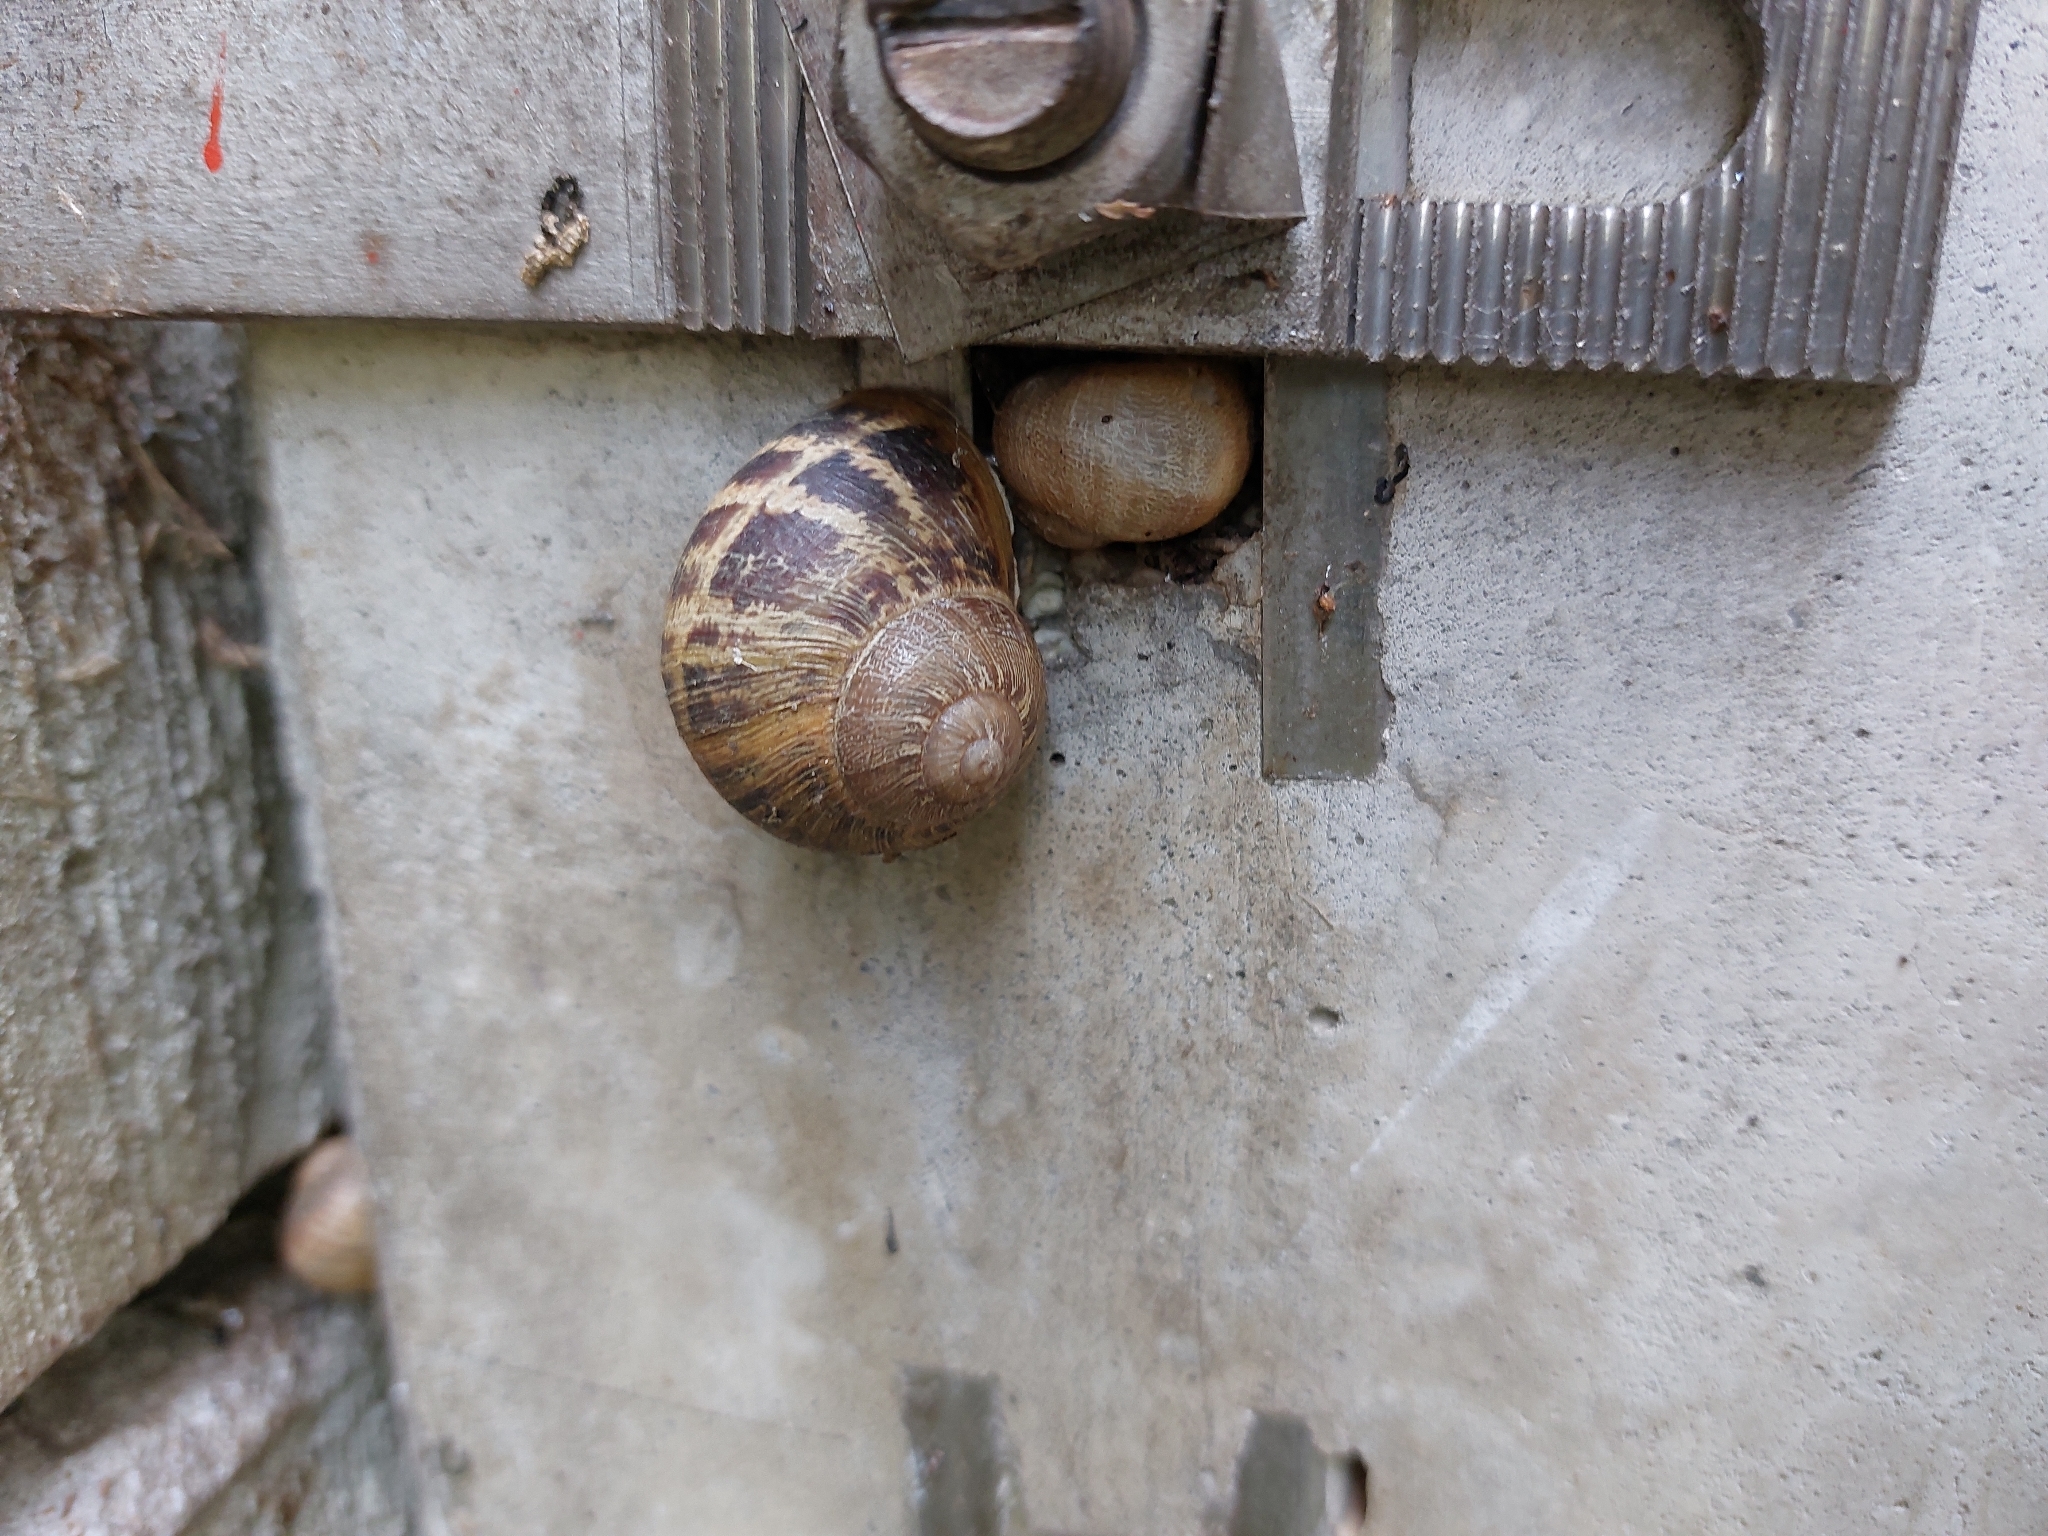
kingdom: Animalia
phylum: Mollusca
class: Gastropoda
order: Stylommatophora
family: Helicidae
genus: Cornu
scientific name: Cornu aspersum
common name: Brown garden snail
